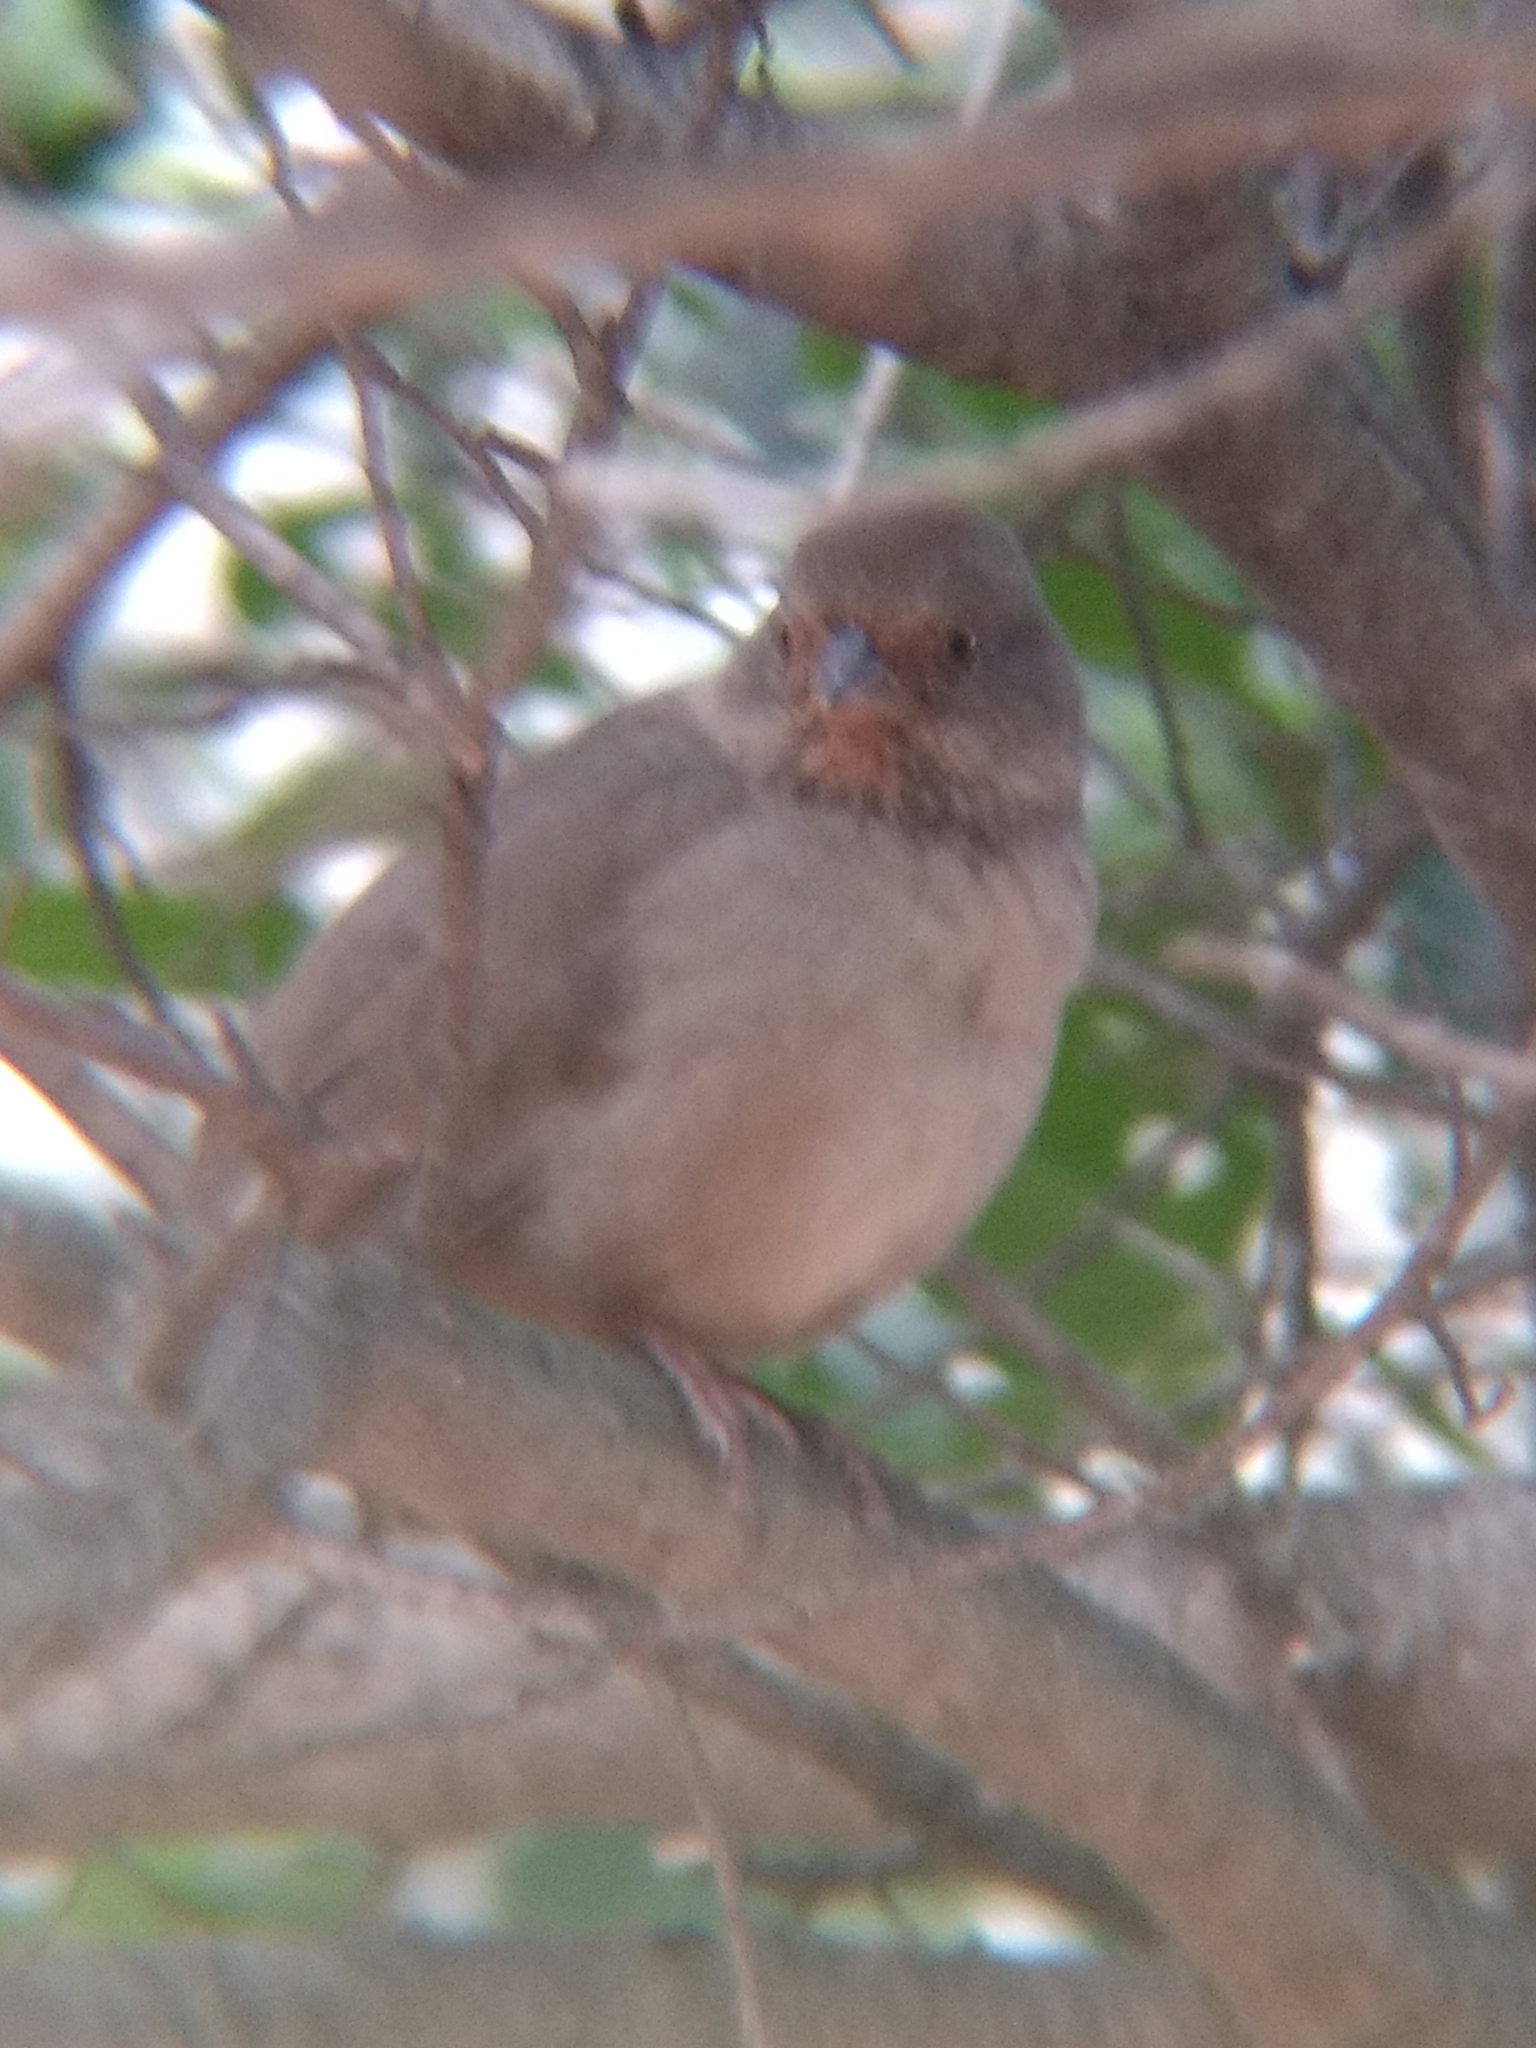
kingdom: Animalia
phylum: Chordata
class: Aves
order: Passeriformes
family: Passerellidae
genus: Melozone
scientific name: Melozone crissalis
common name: California towhee
